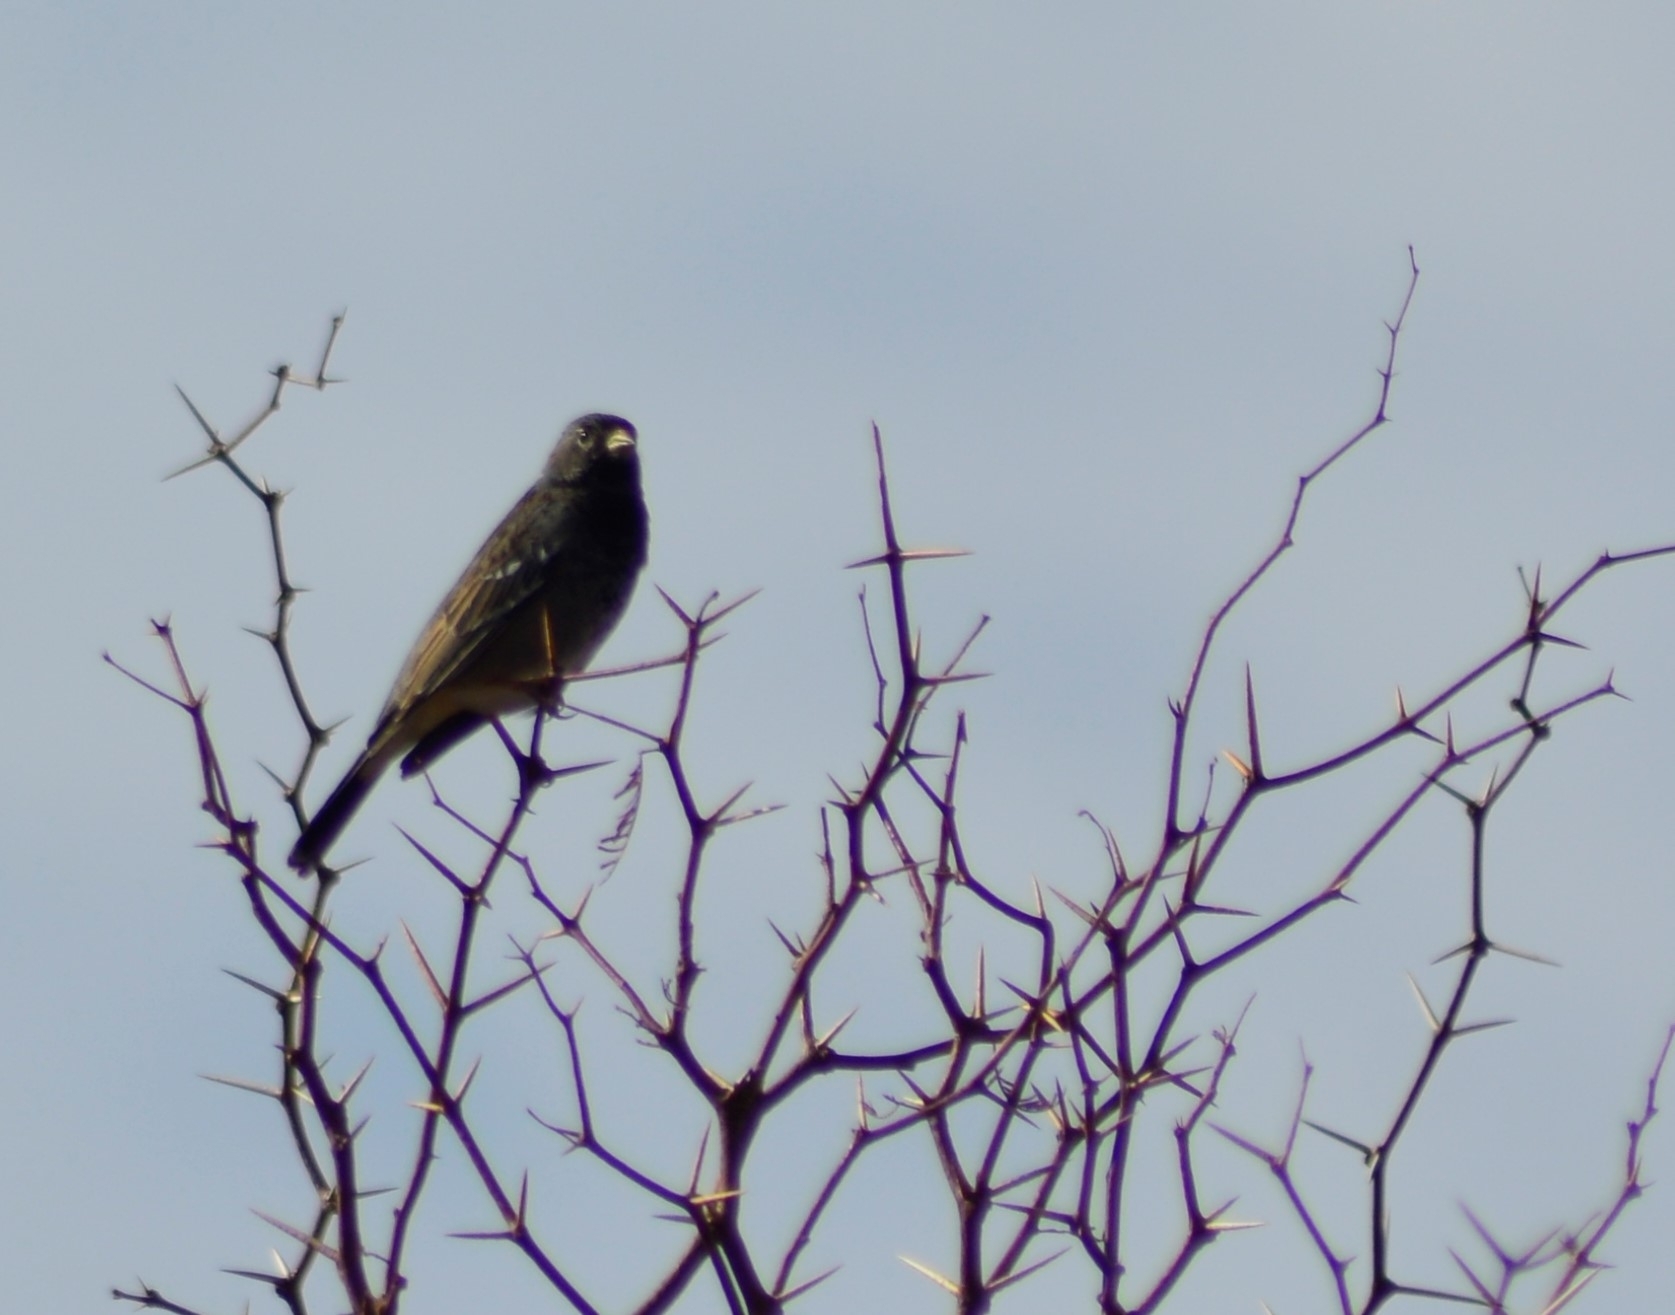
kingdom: Animalia
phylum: Chordata
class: Aves
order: Passeriformes
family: Thraupidae
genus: Rhopospina
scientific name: Rhopospina fruticeti
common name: Mourning sierra finch
